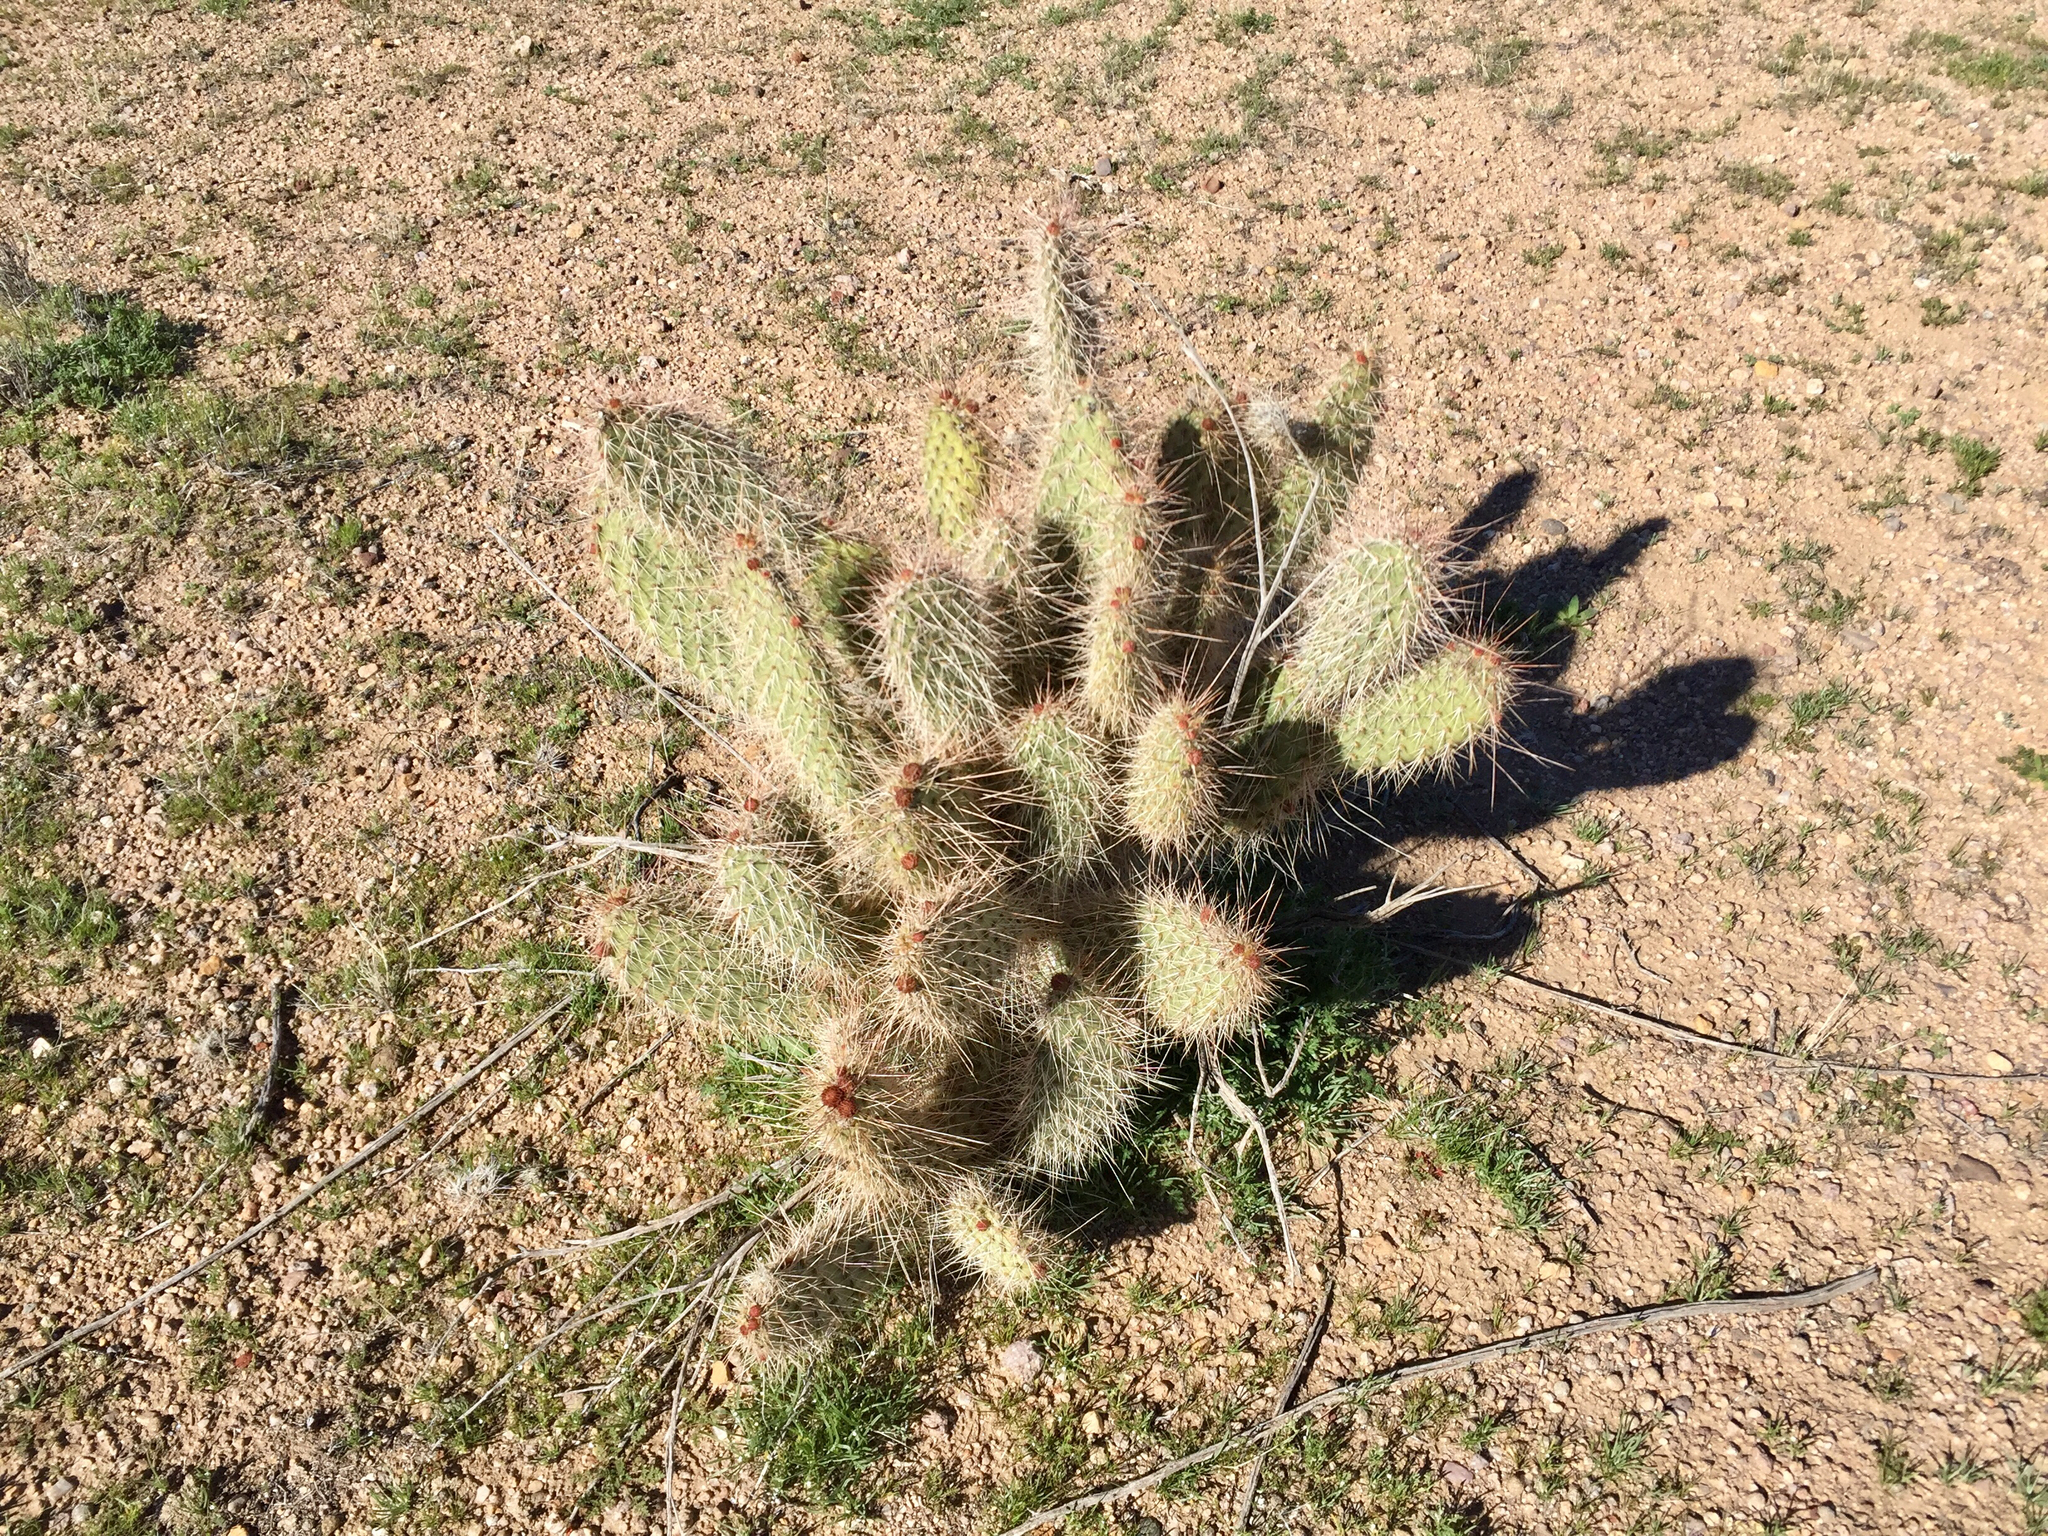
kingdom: Plantae
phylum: Tracheophyta
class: Magnoliopsida
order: Caryophyllales
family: Cactaceae
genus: Opuntia
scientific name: Opuntia polyacantha
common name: Plains prickly-pear
